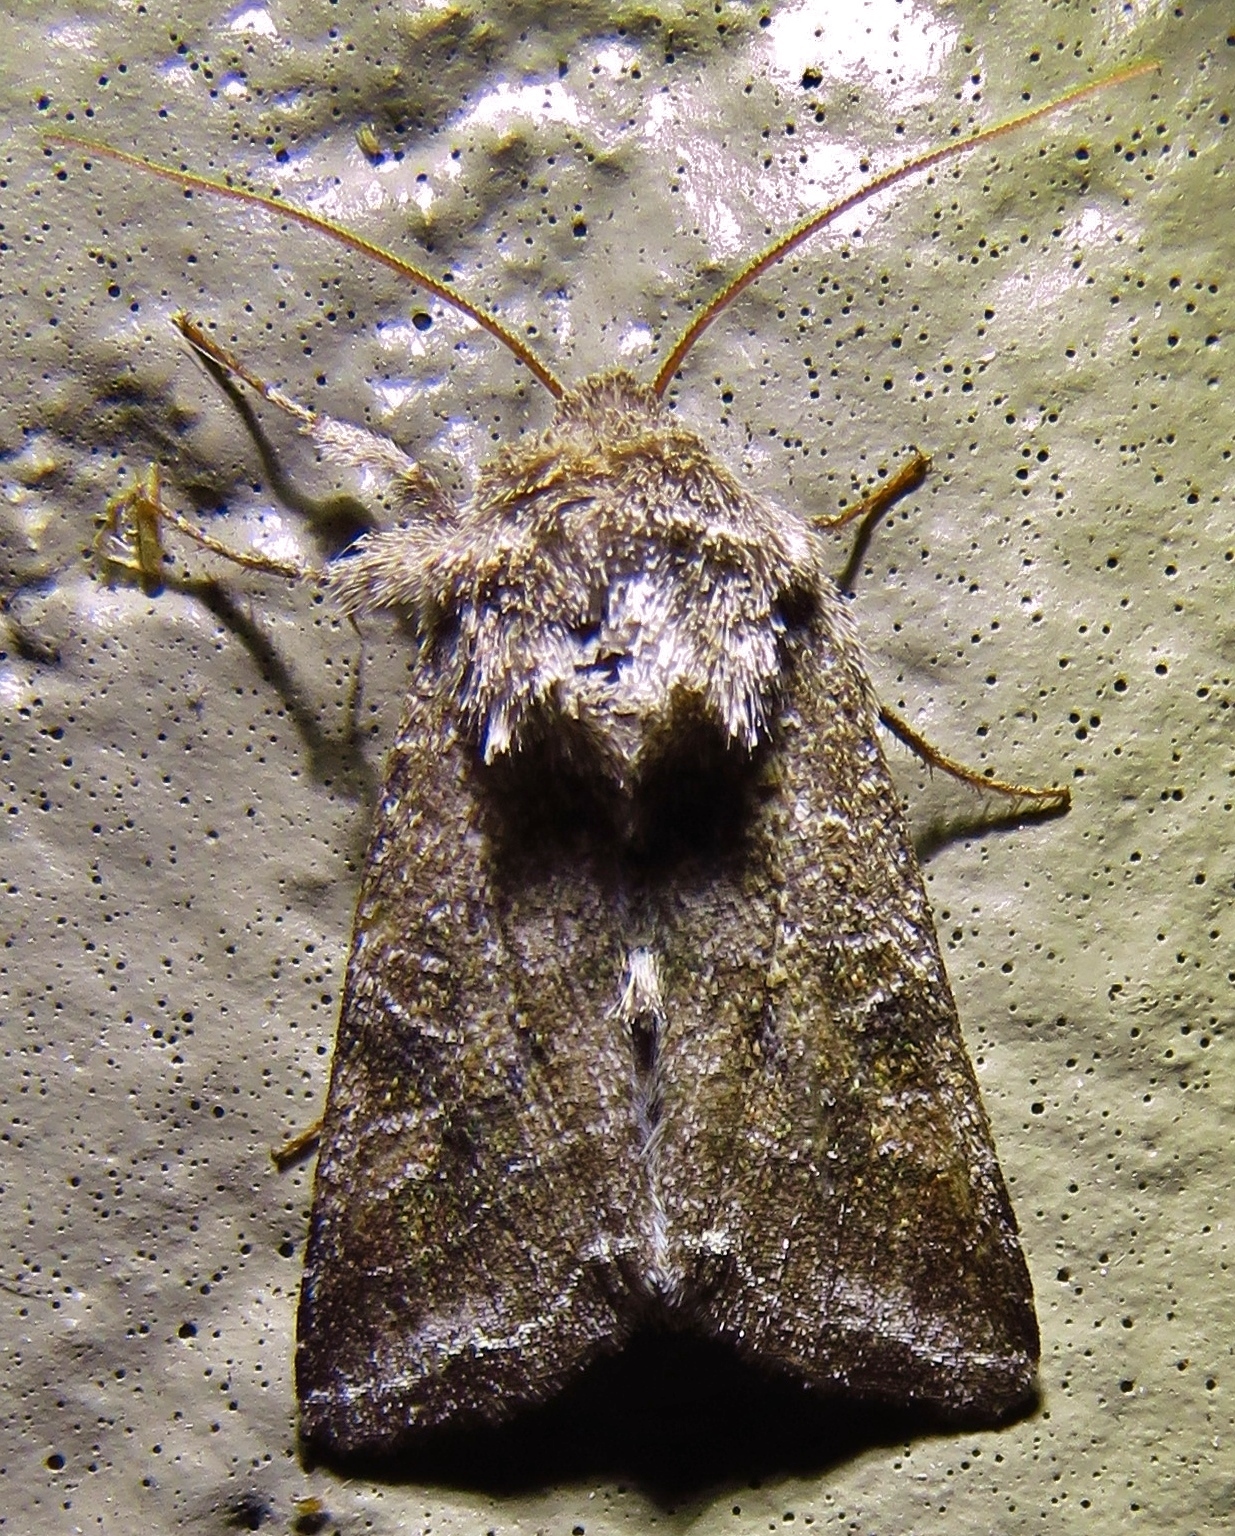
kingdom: Animalia
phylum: Arthropoda
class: Insecta
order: Lepidoptera
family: Noctuidae
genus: Lacinipolia
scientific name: Lacinipolia erecta
